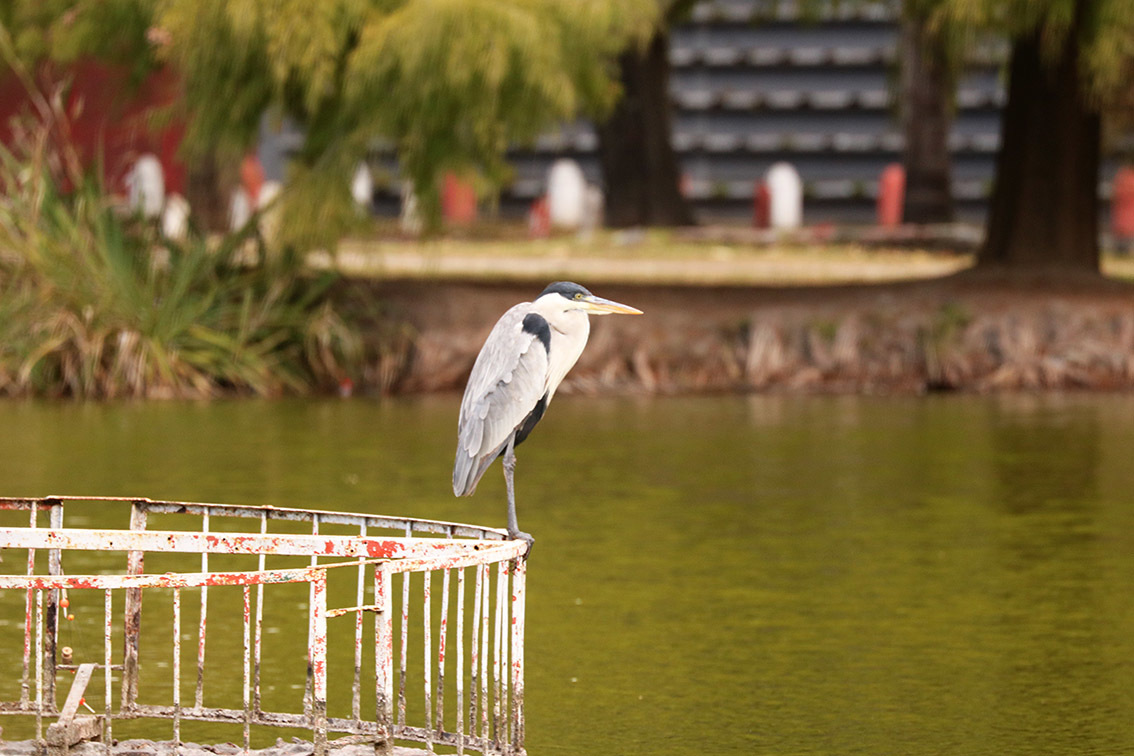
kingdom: Animalia
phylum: Chordata
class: Aves
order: Pelecaniformes
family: Ardeidae
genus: Ardea
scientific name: Ardea cocoi
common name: Cocoi heron
